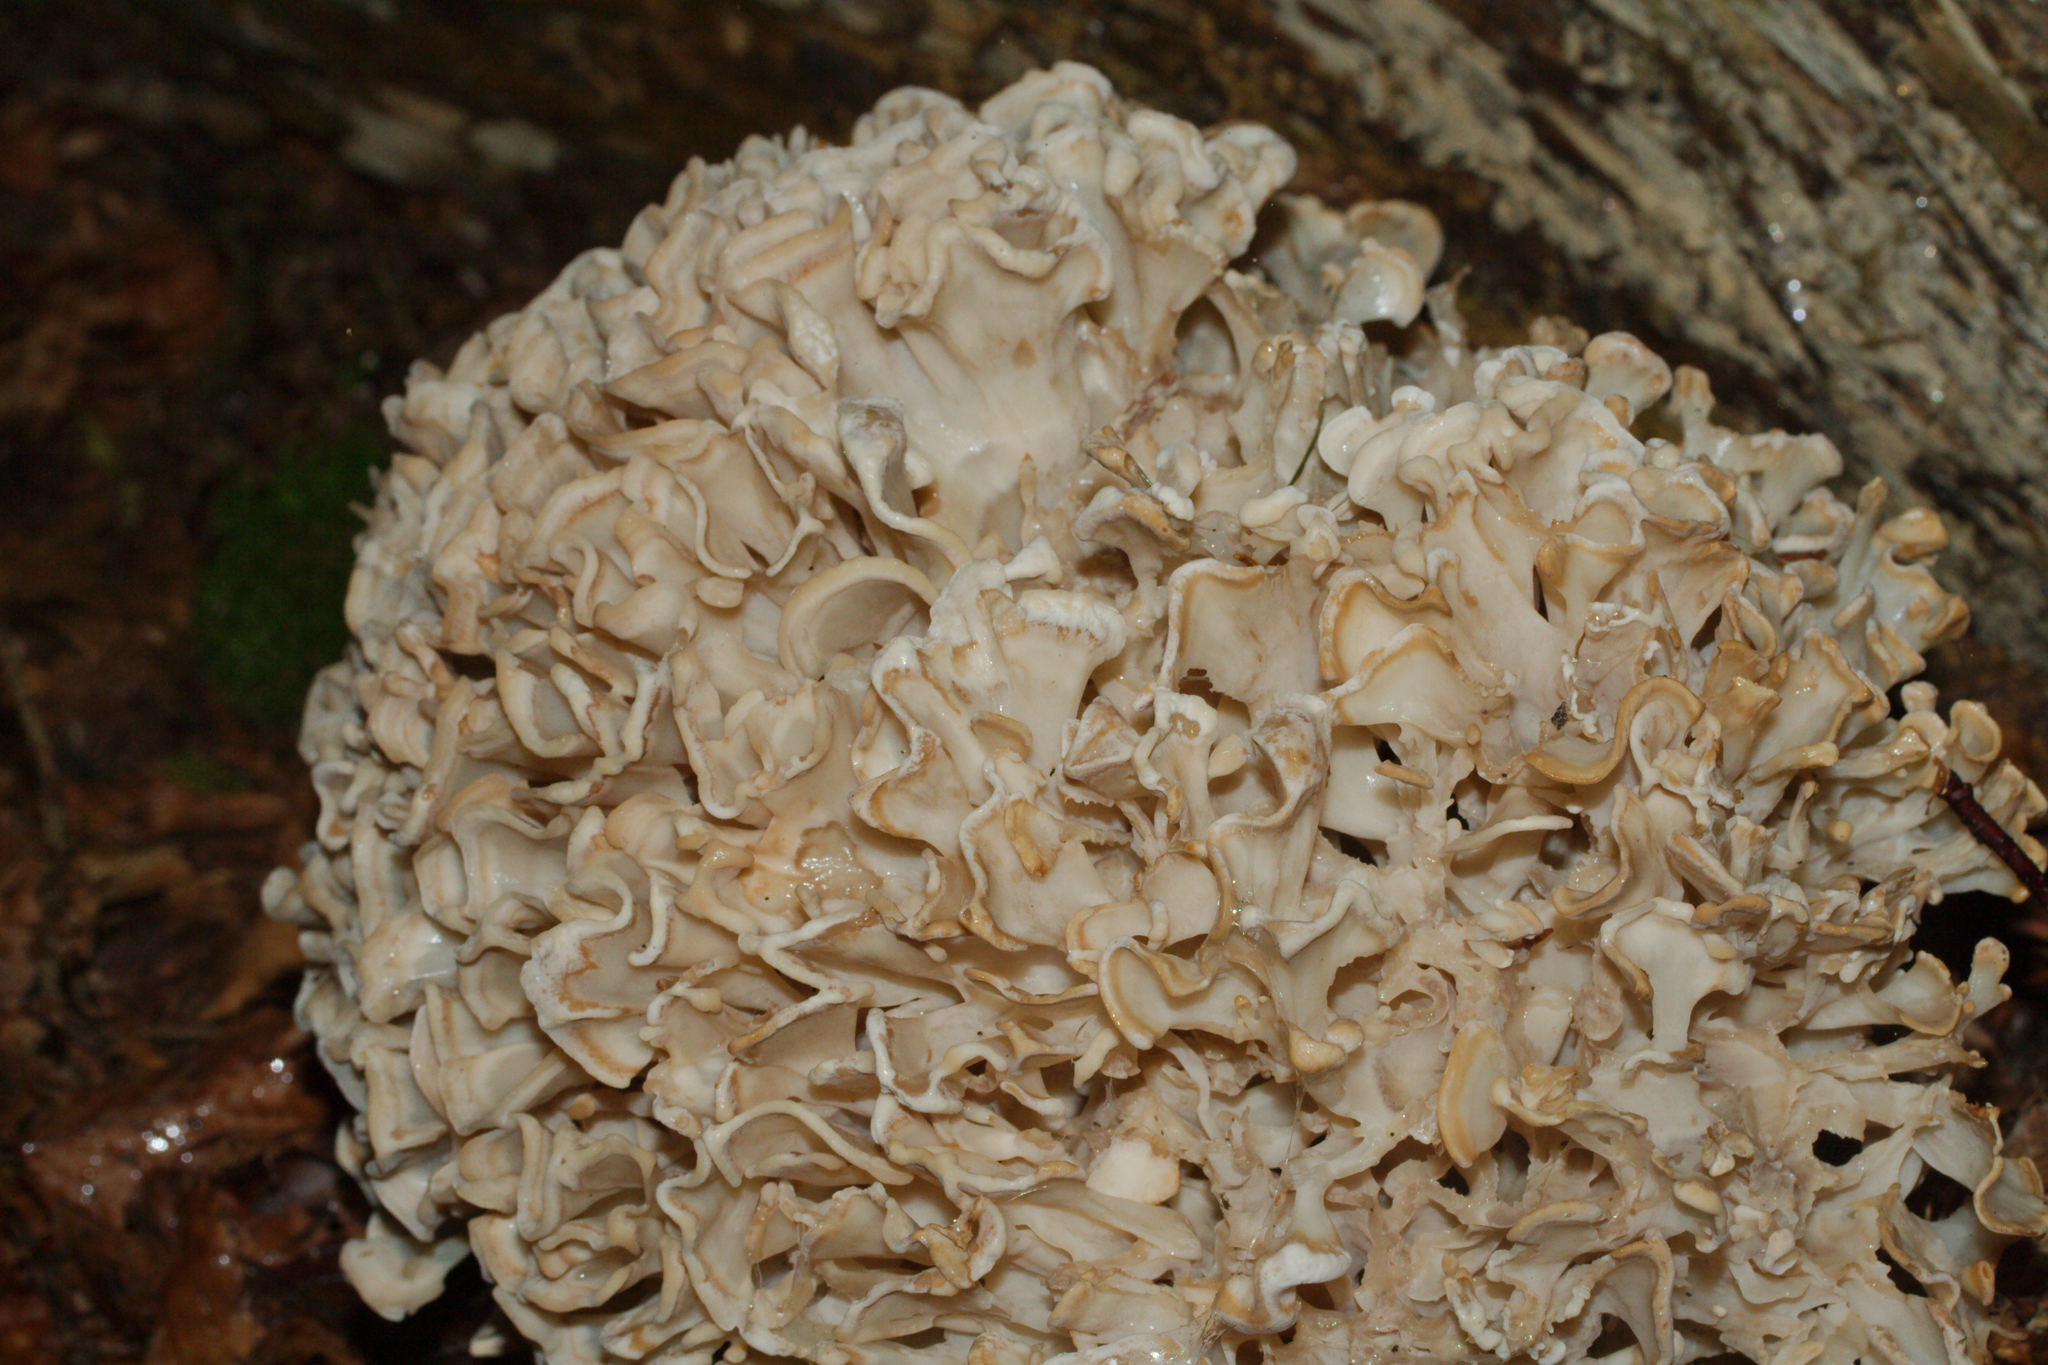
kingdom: Fungi
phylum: Basidiomycota
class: Agaricomycetes
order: Polyporales
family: Sparassidaceae
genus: Sparassis
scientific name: Sparassis crispa
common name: Brain fungus
